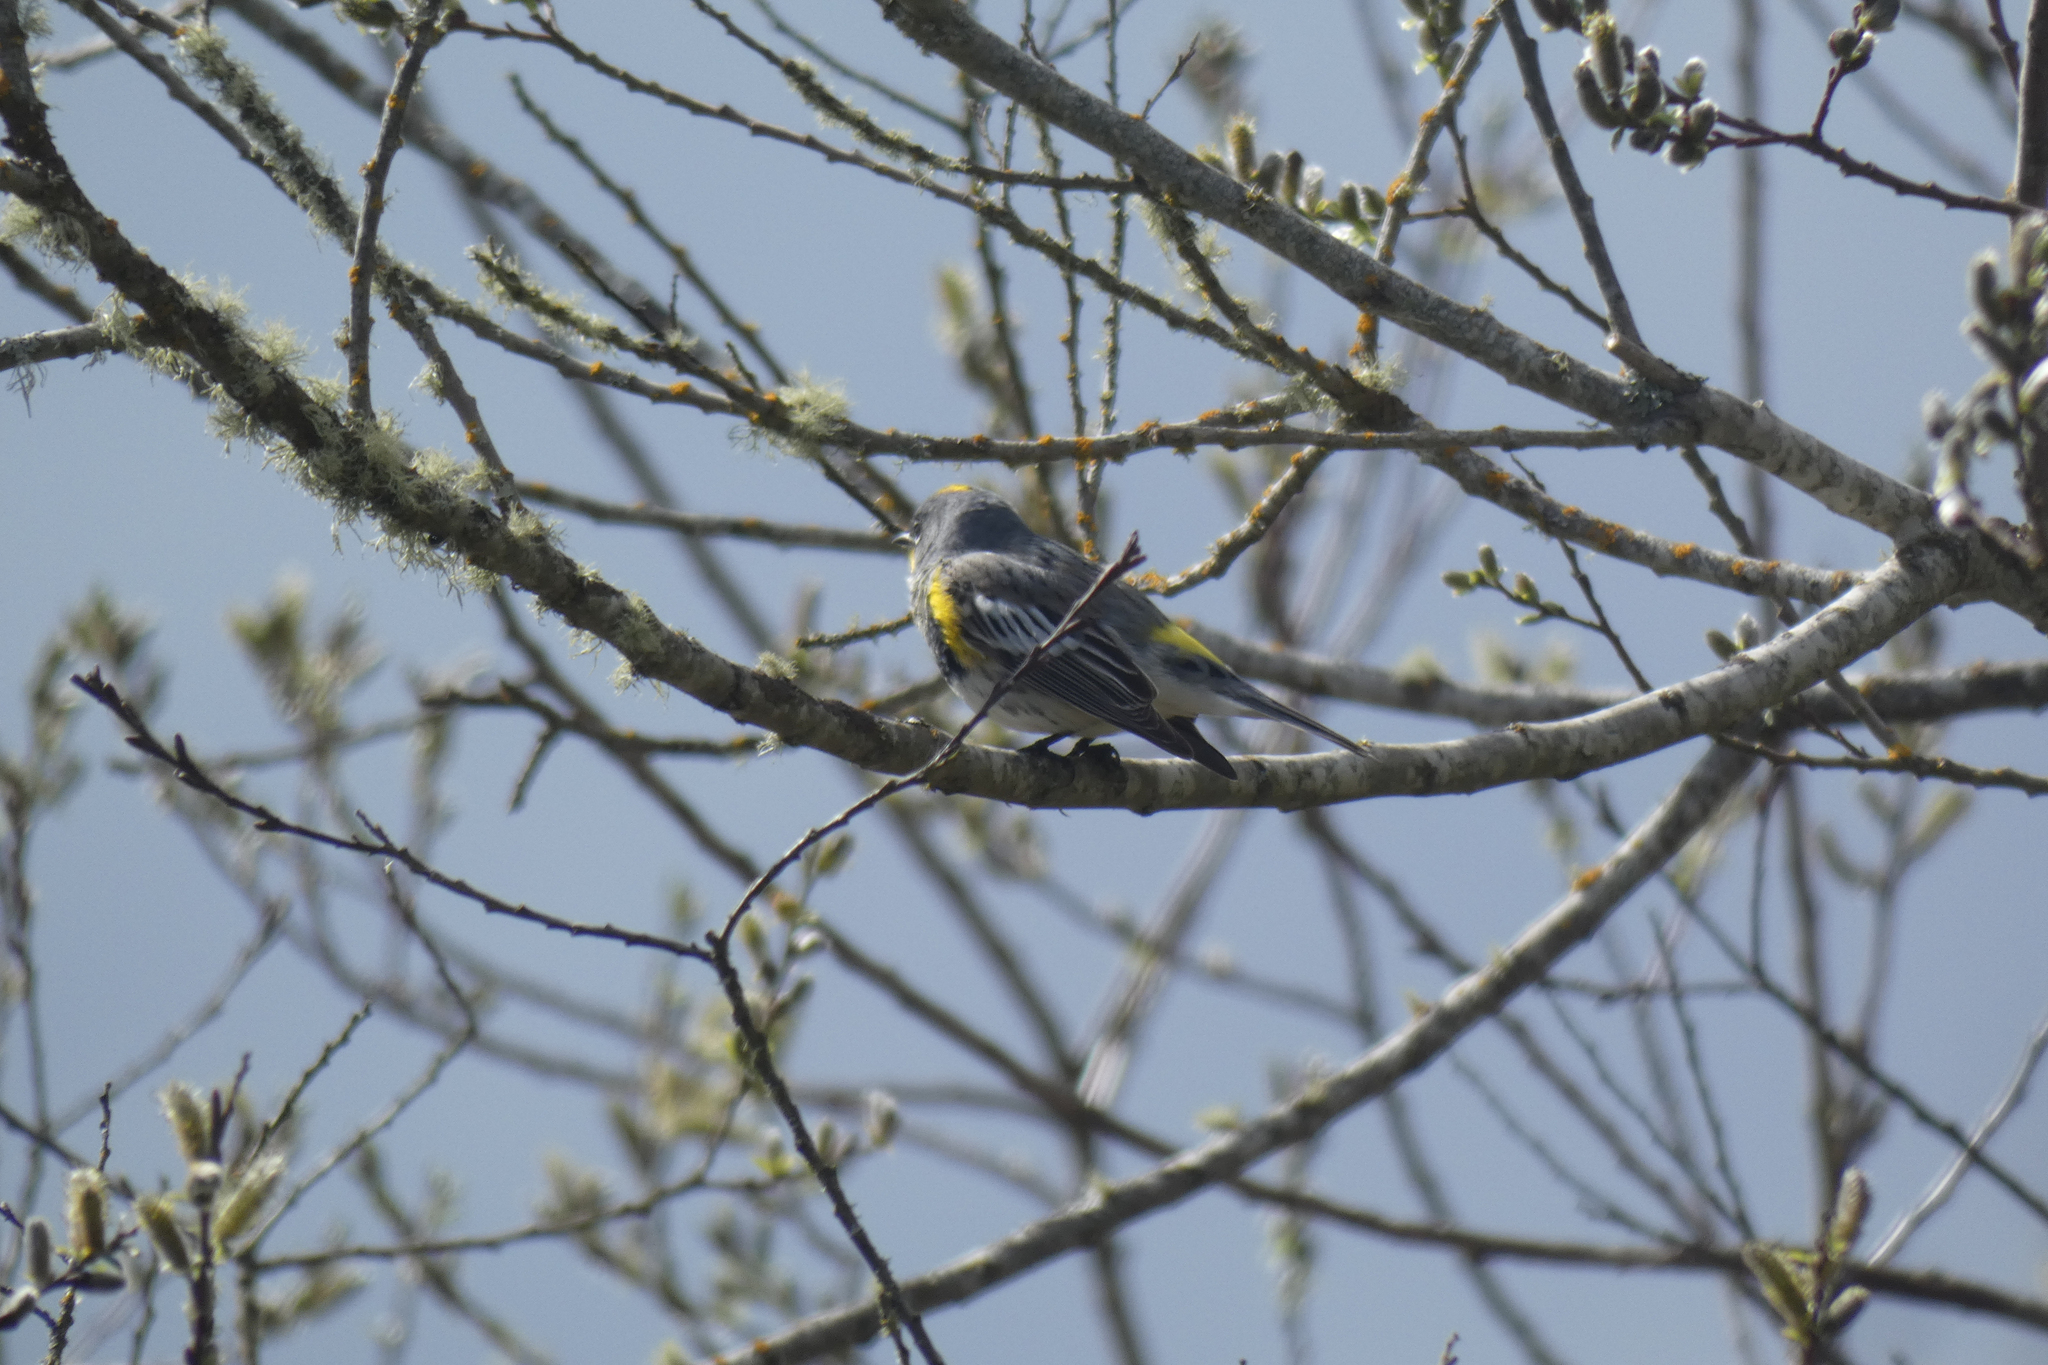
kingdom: Animalia
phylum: Chordata
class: Aves
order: Passeriformes
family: Parulidae
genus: Setophaga
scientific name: Setophaga coronata
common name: Myrtle warbler
